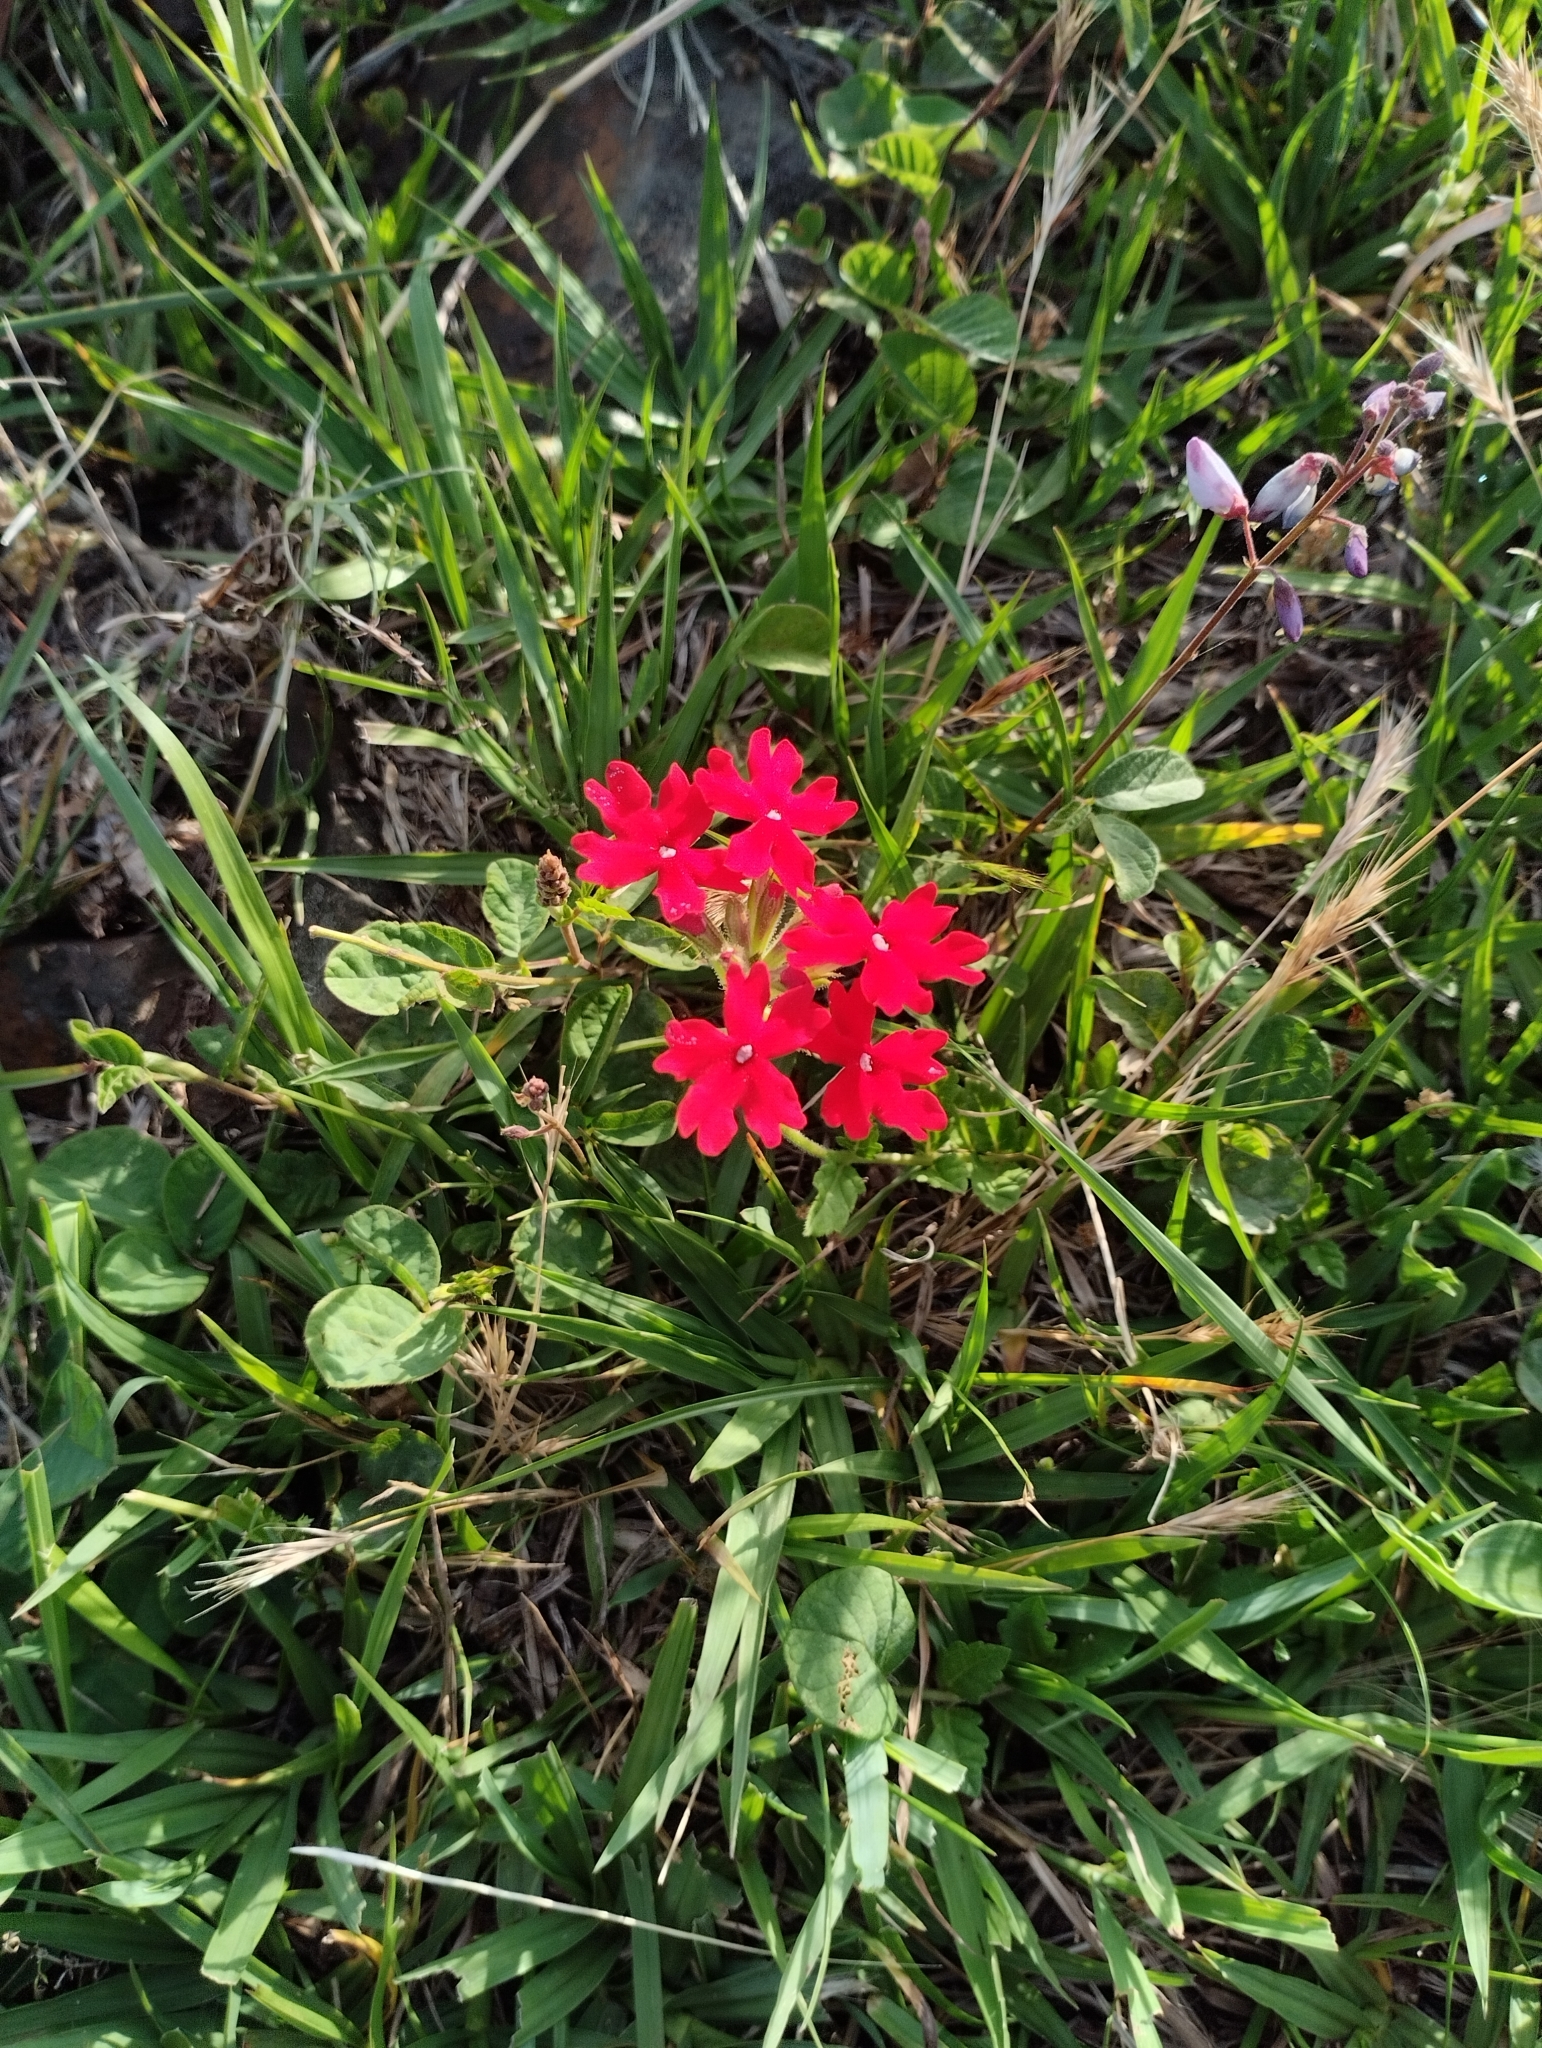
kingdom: Plantae
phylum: Tracheophyta
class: Magnoliopsida
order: Lamiales
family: Verbenaceae
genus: Verbena
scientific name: Verbena peruviana
